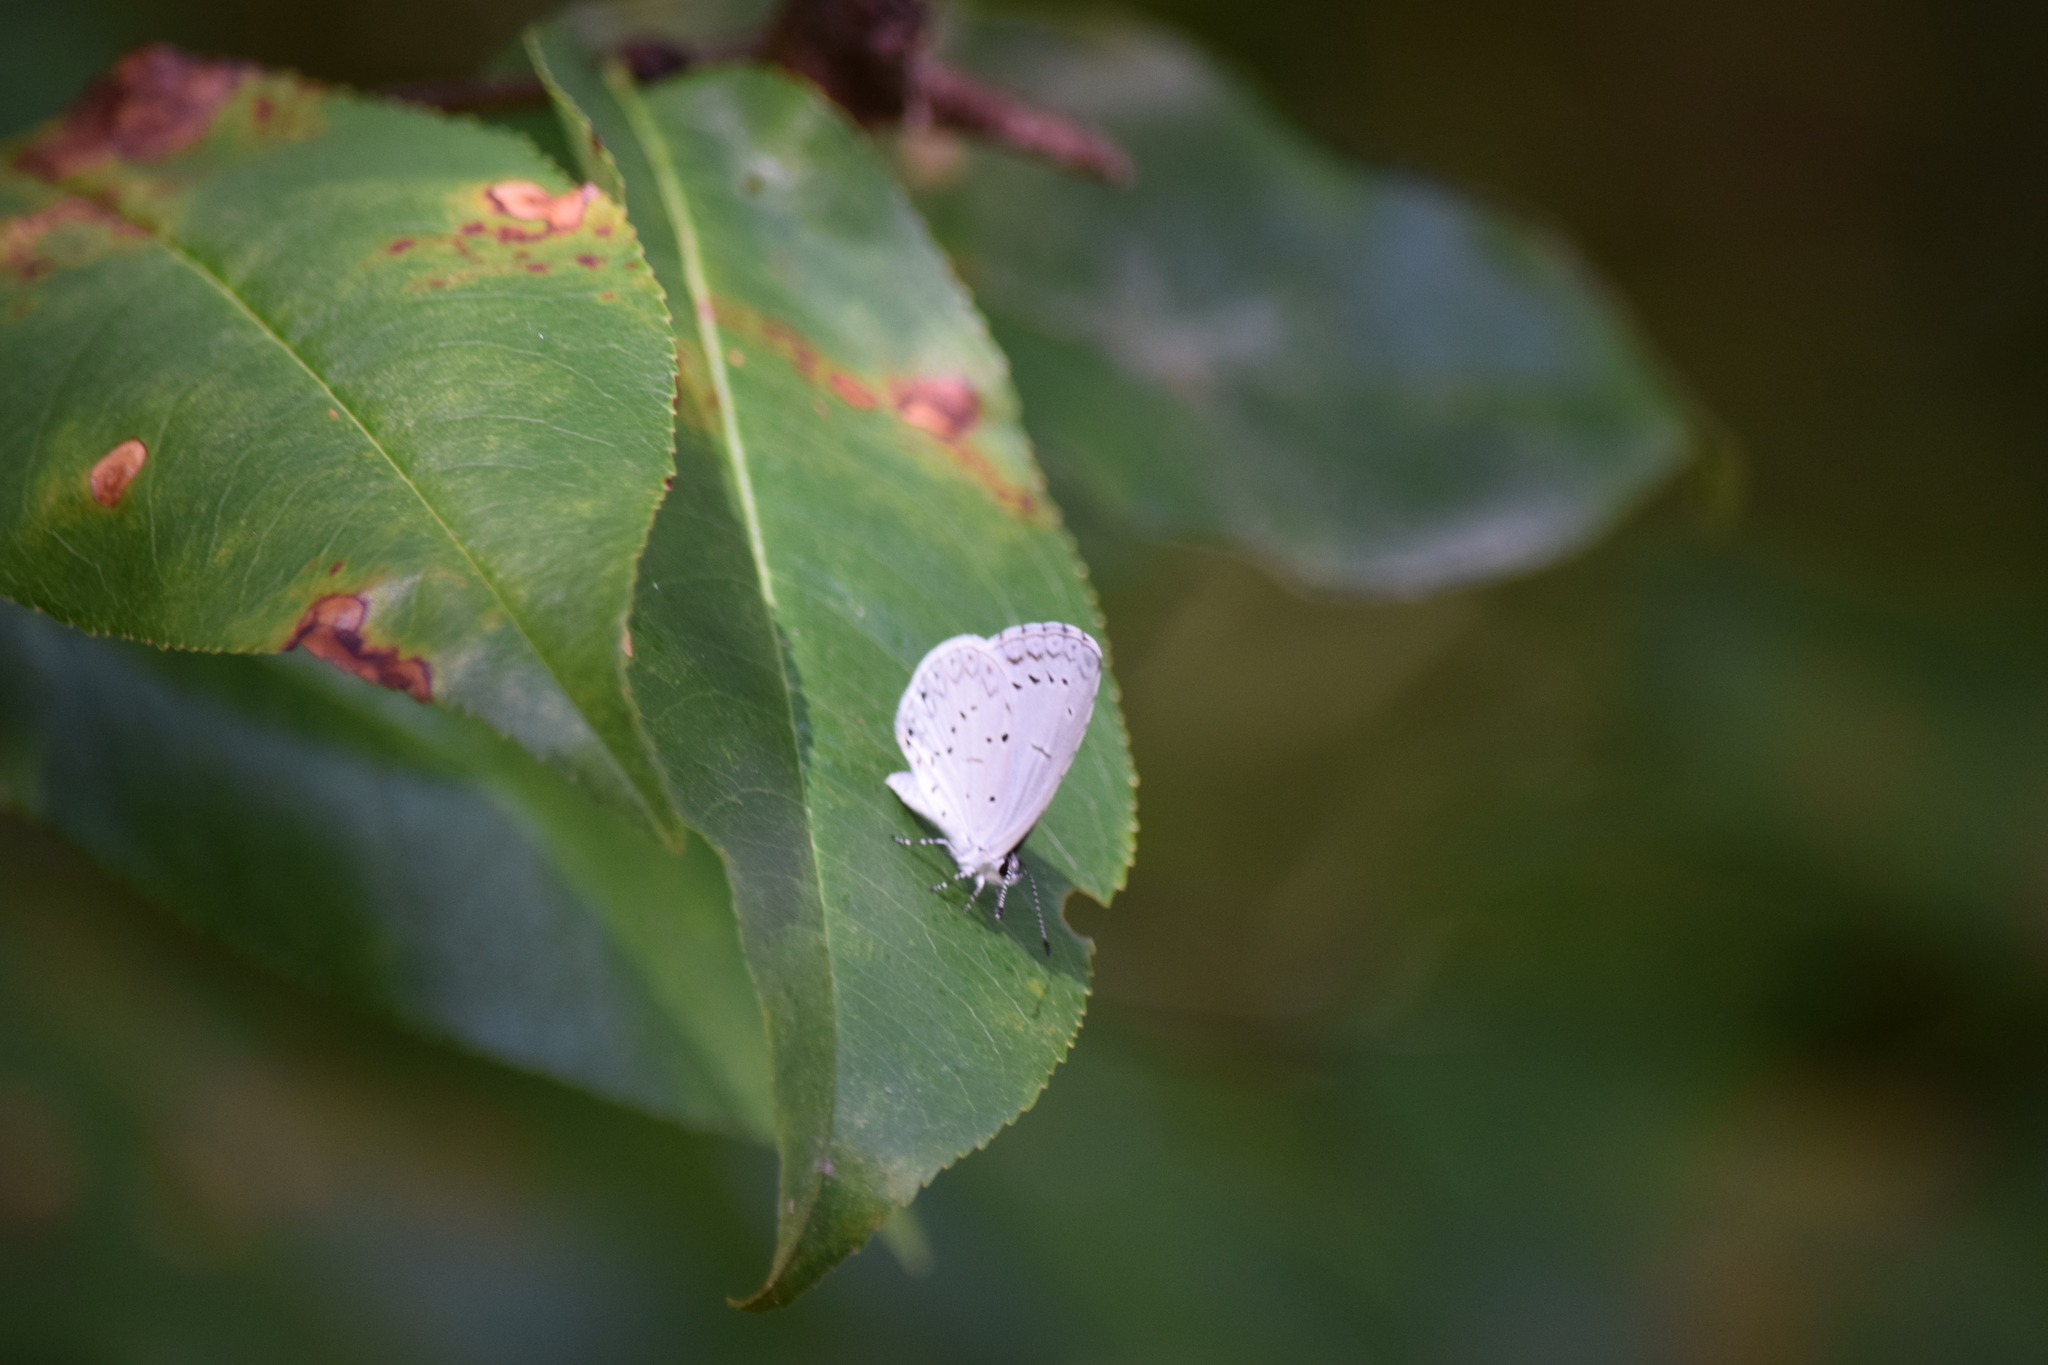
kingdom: Animalia
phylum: Arthropoda
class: Insecta
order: Lepidoptera
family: Lycaenidae
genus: Cyaniris
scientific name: Cyaniris neglecta
